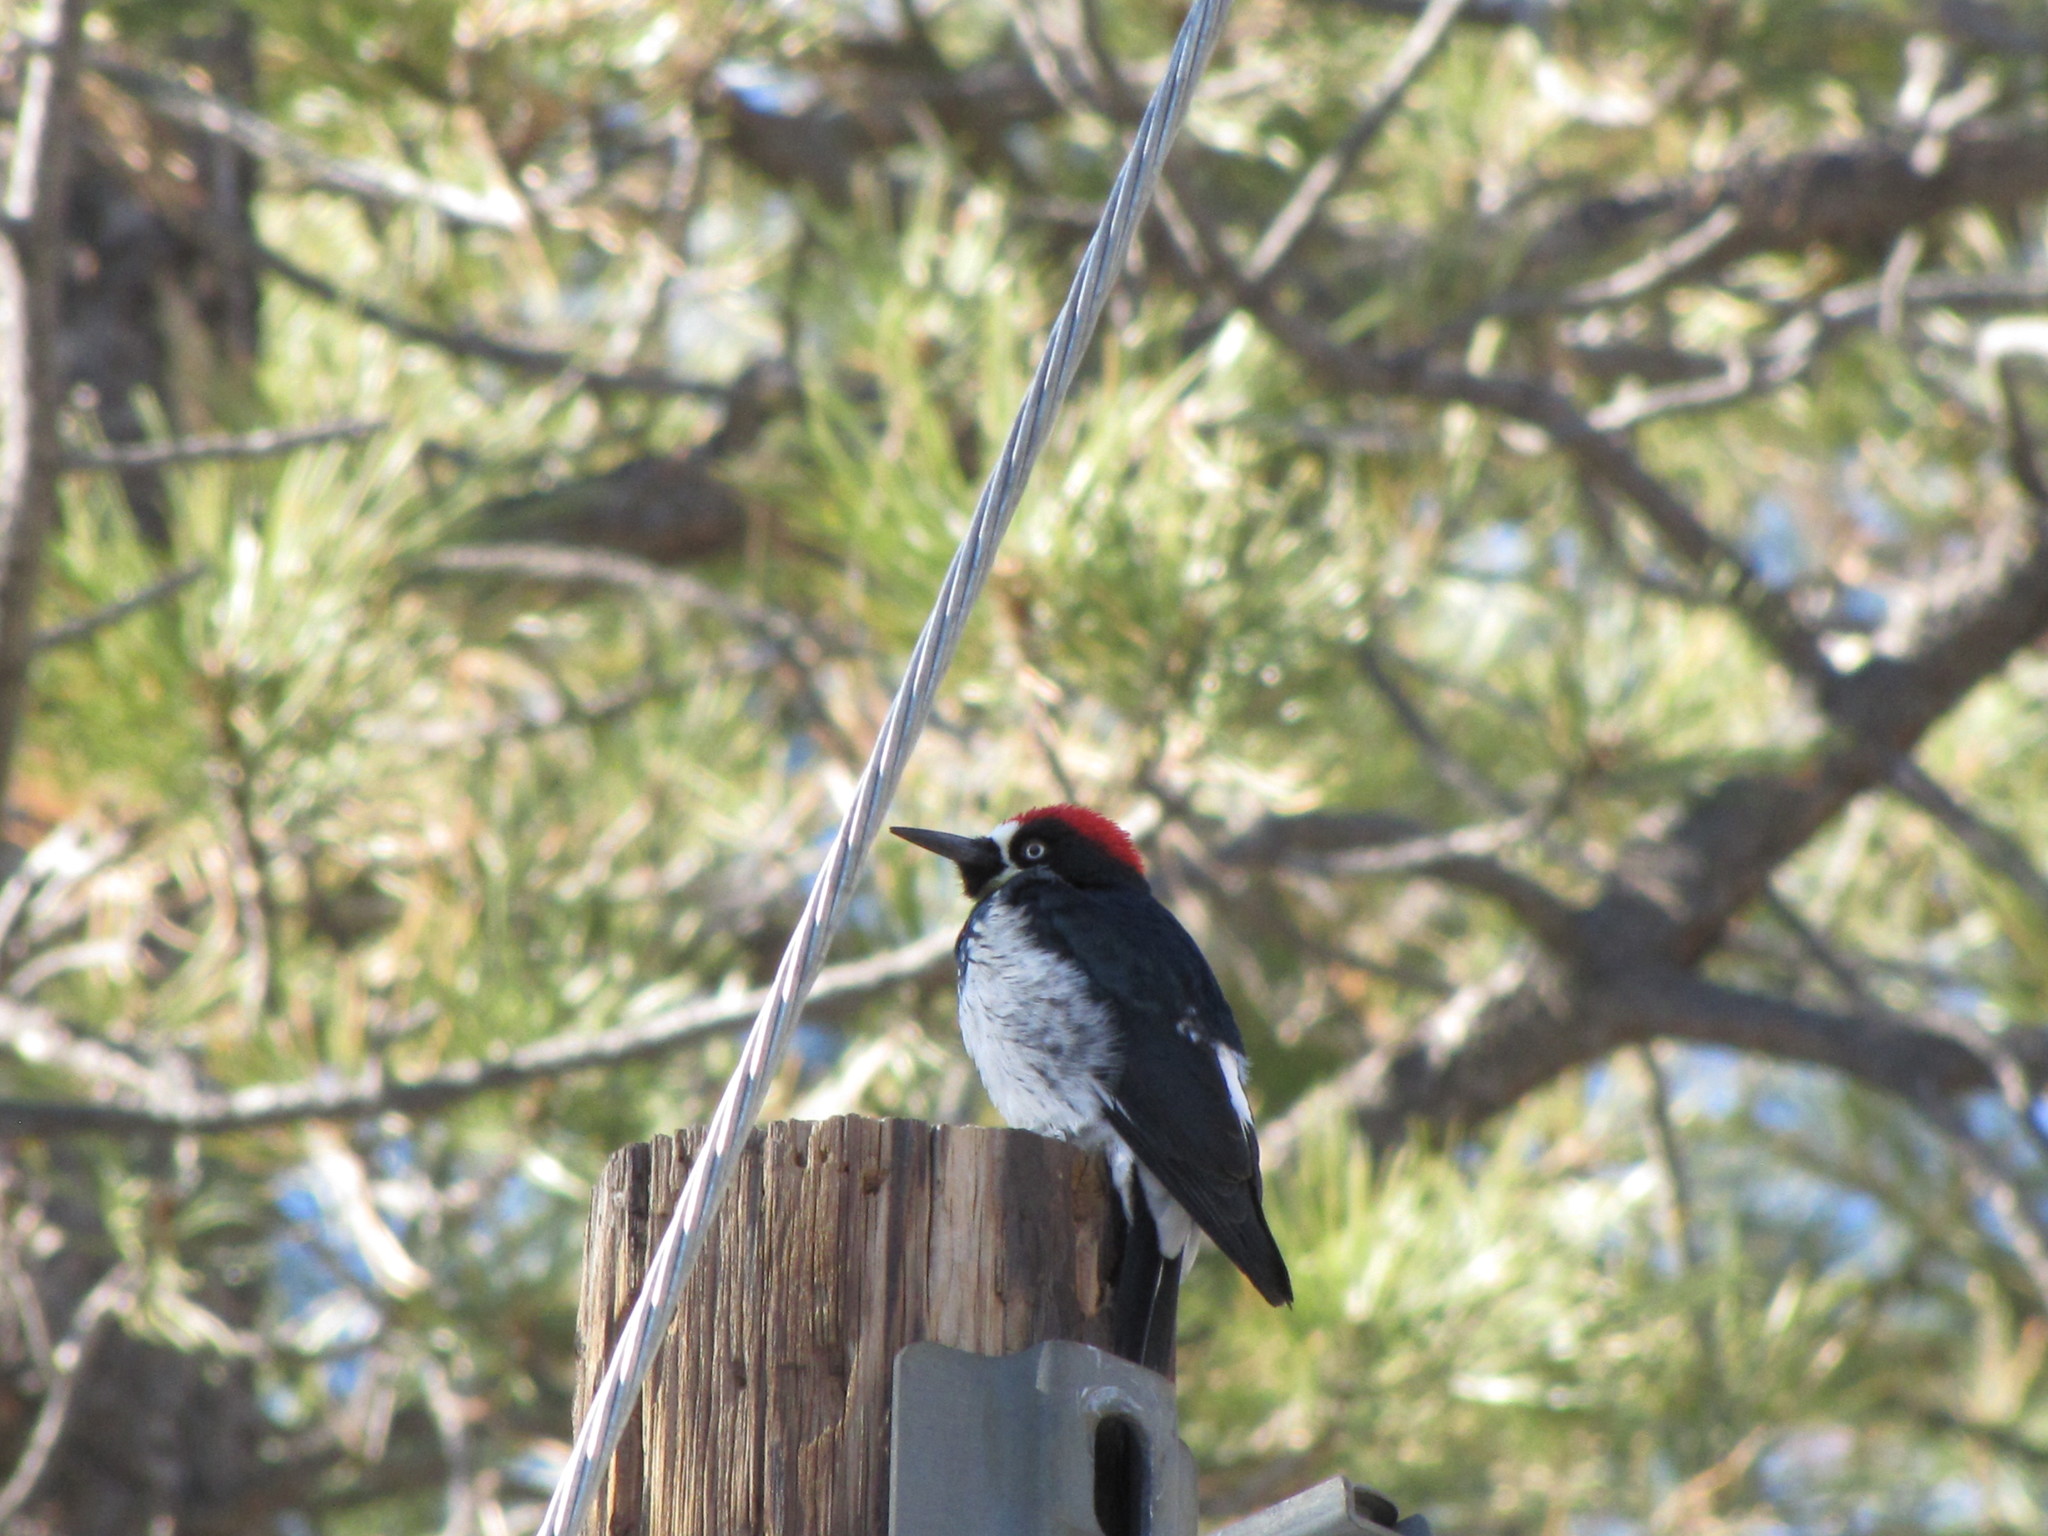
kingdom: Animalia
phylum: Chordata
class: Aves
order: Piciformes
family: Picidae
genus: Melanerpes
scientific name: Melanerpes formicivorus
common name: Acorn woodpecker
